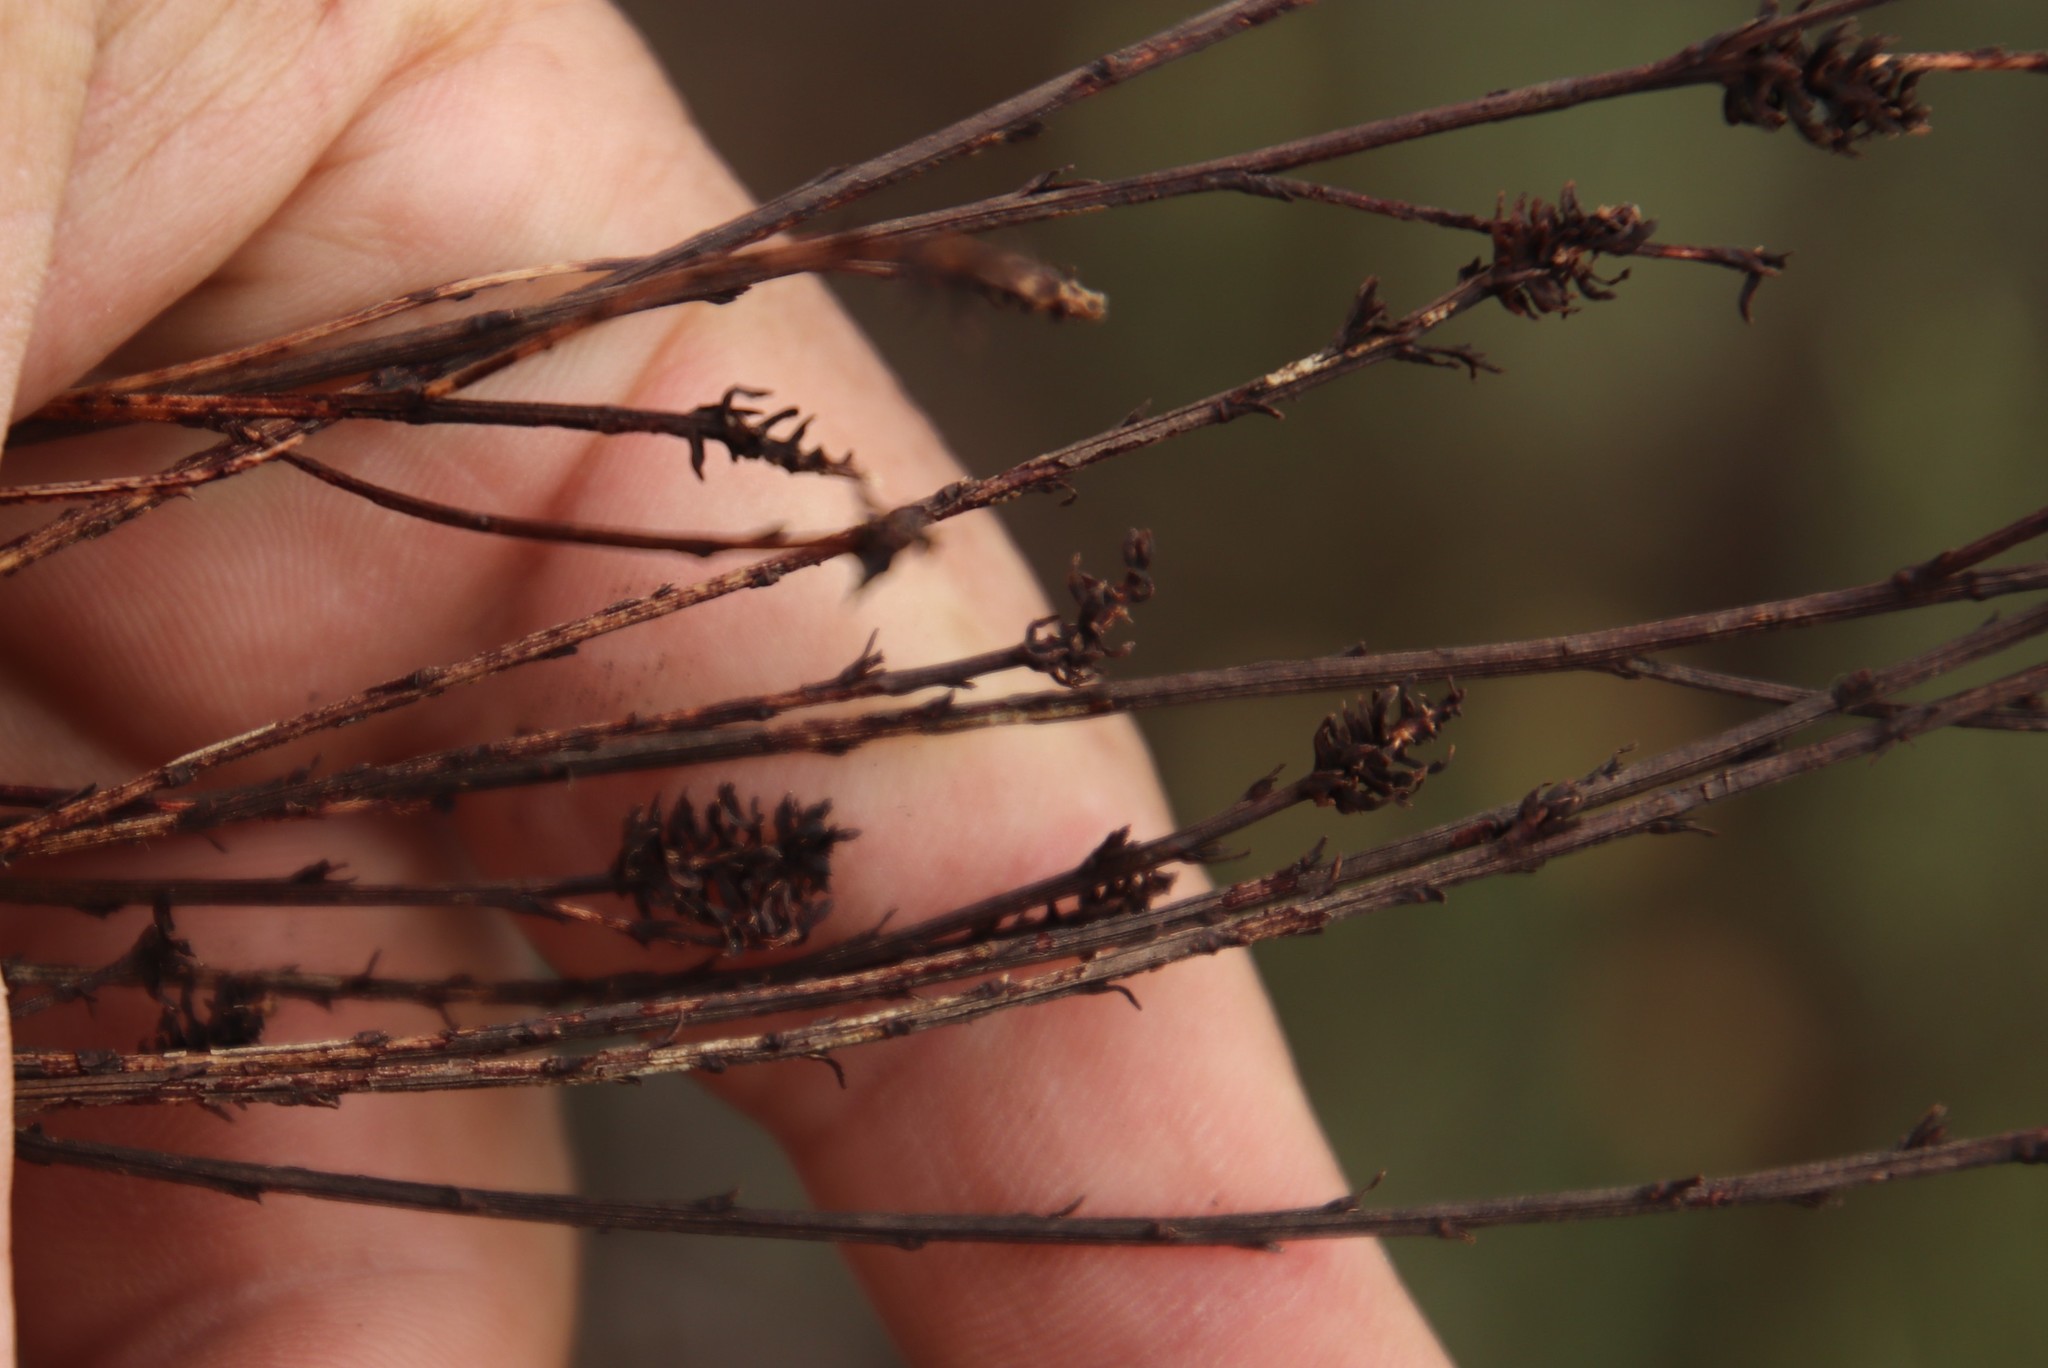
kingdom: Plantae
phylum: Tracheophyta
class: Magnoliopsida
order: Santalales
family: Thesiaceae
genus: Thesium
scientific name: Thesium aggregatum
